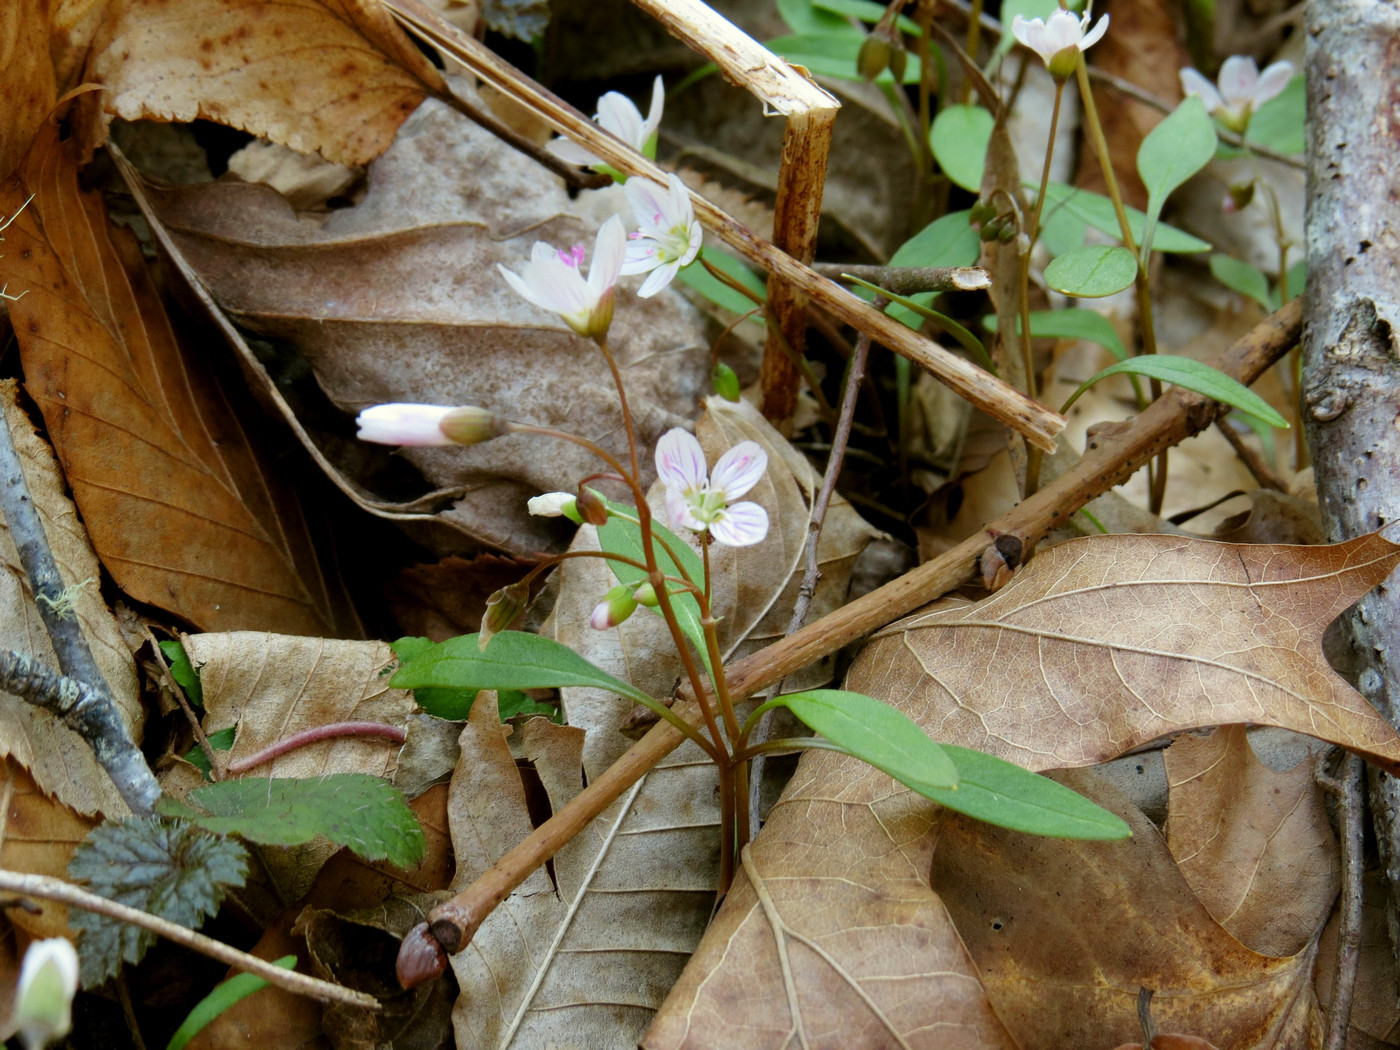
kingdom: Plantae
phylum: Tracheophyta
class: Magnoliopsida
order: Caryophyllales
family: Montiaceae
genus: Claytonia
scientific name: Claytonia caroliniana
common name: Carolina spring beauty
